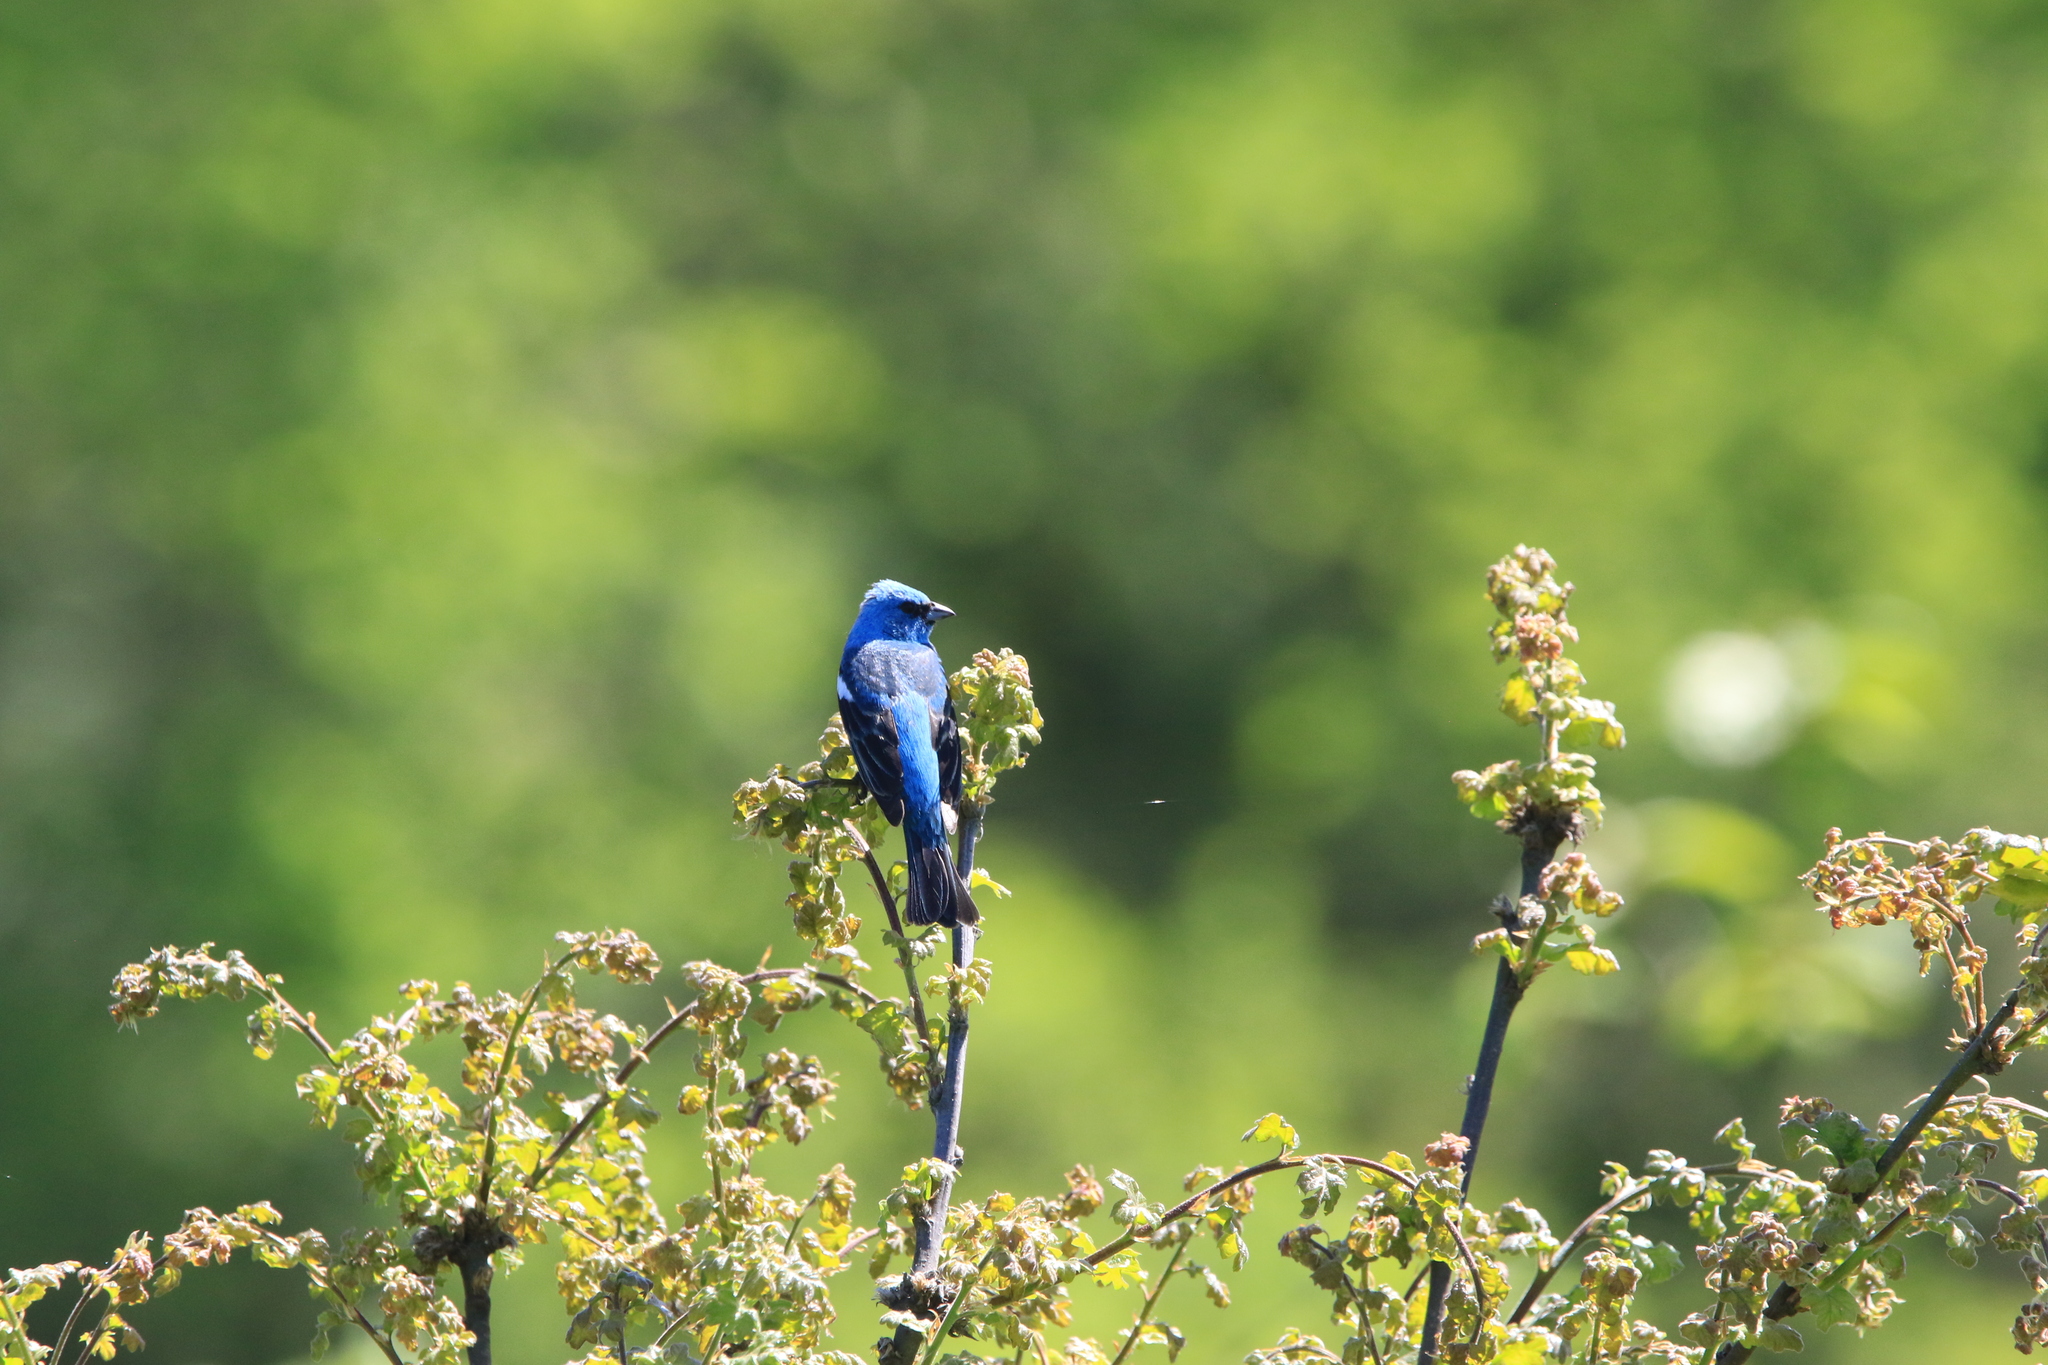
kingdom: Animalia
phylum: Chordata
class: Aves
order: Passeriformes
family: Cardinalidae
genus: Passerina
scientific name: Passerina amoena
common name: Lazuli bunting
